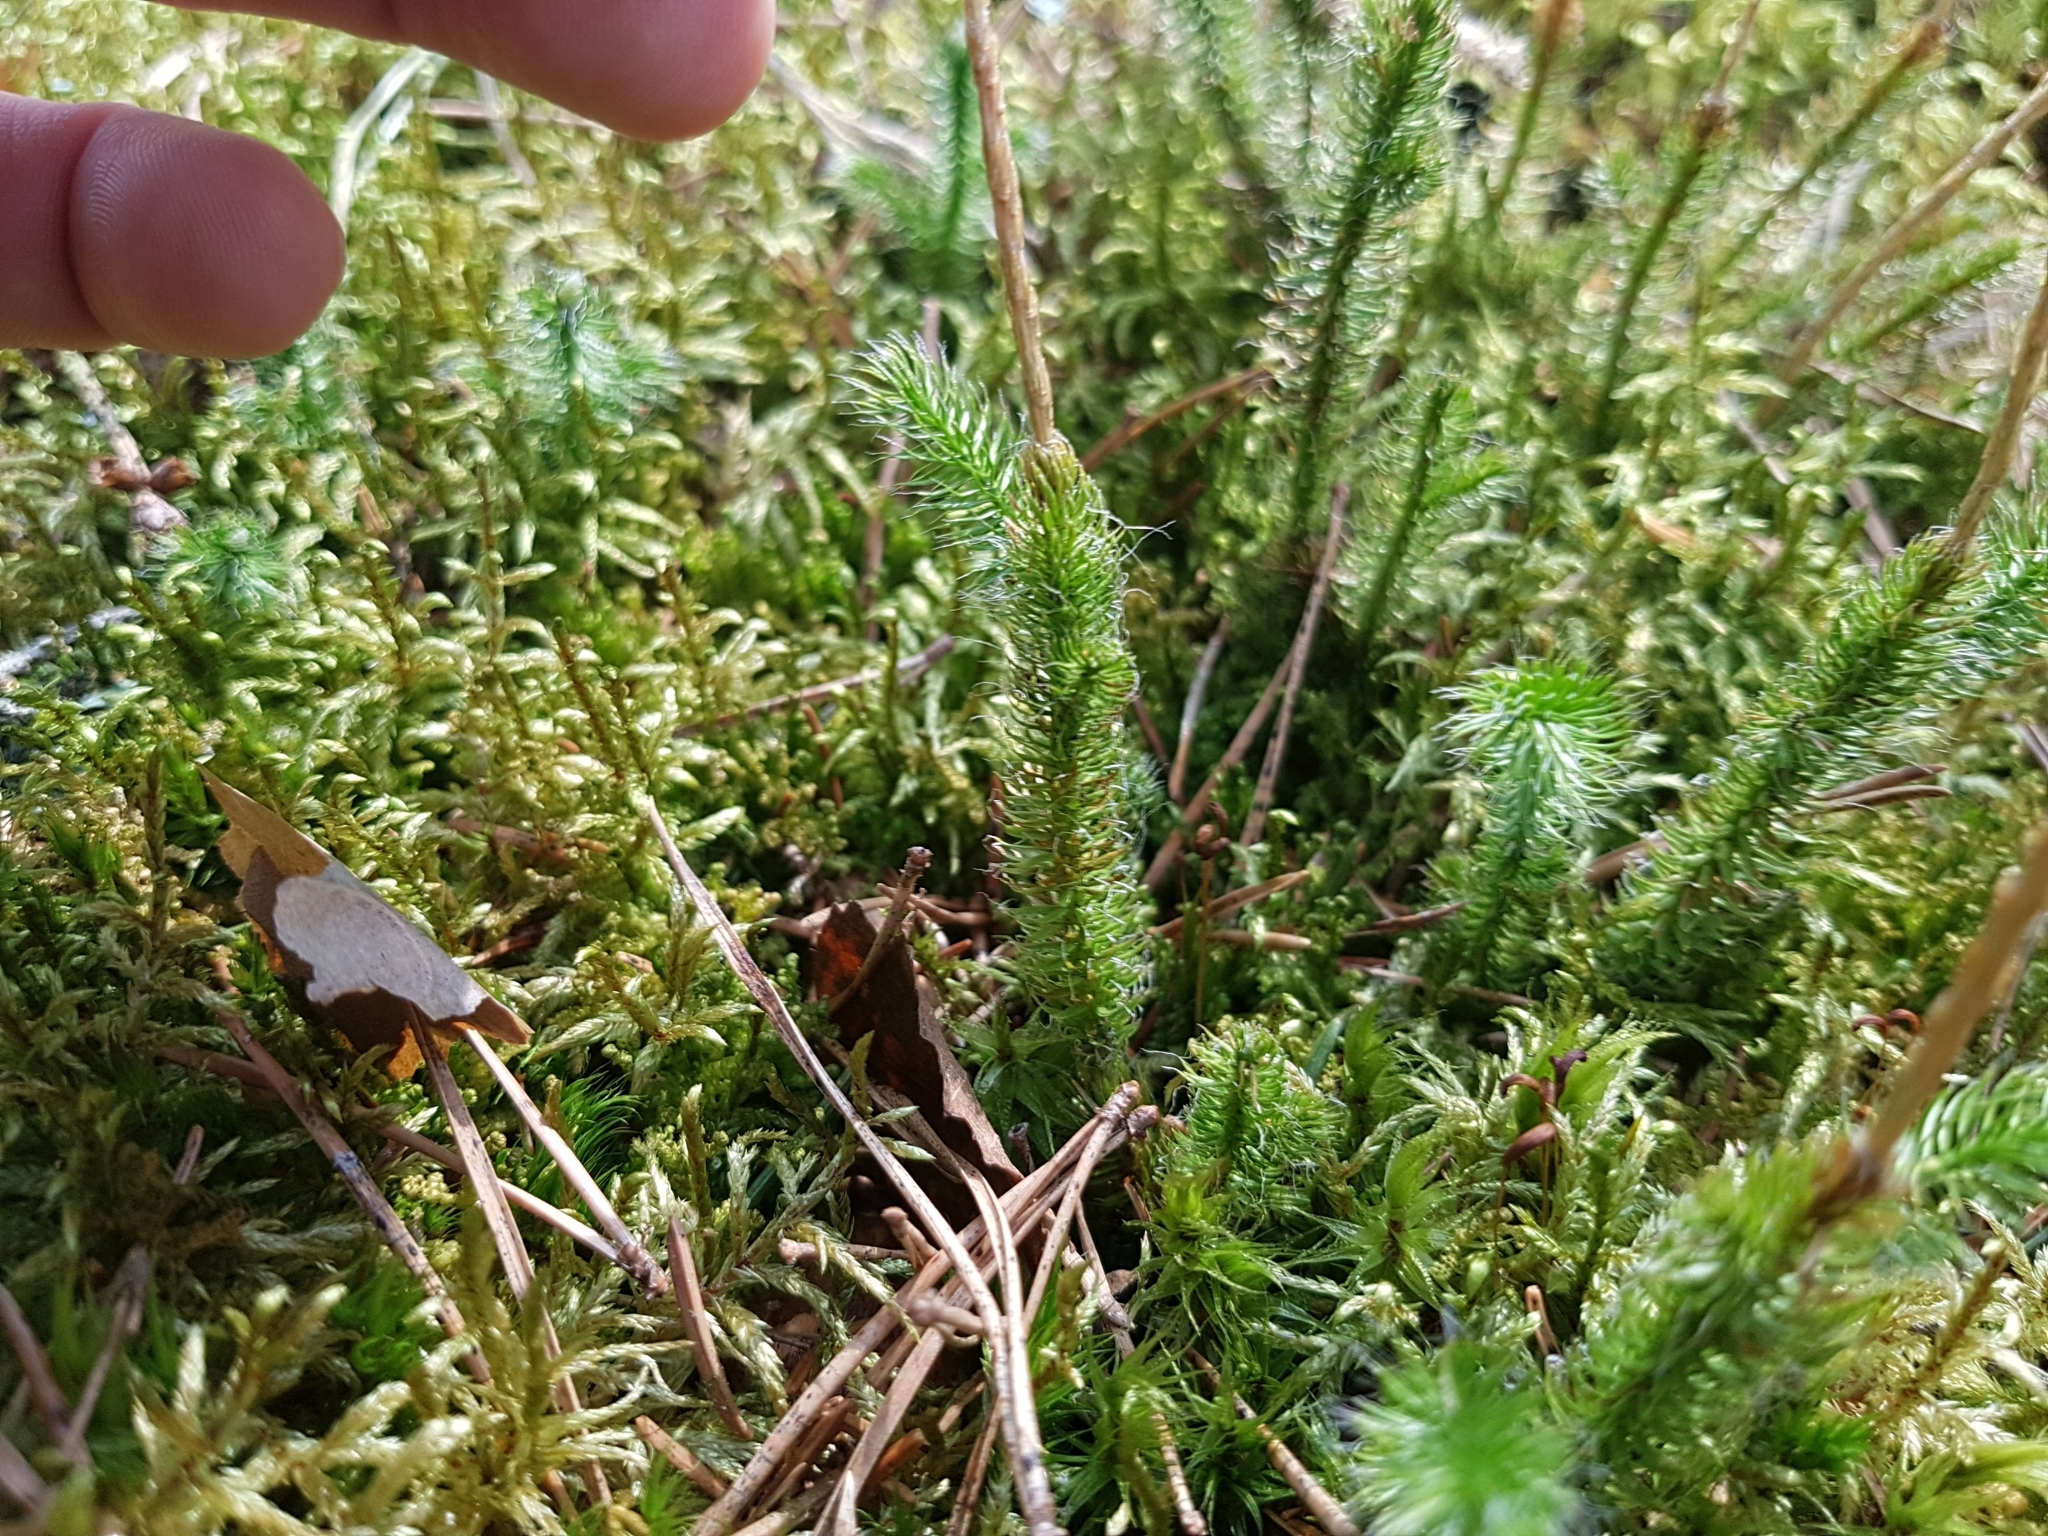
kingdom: Plantae
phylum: Tracheophyta
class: Lycopodiopsida
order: Lycopodiales
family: Lycopodiaceae
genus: Lycopodium
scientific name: Lycopodium clavatum
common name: Stag's-horn clubmoss
